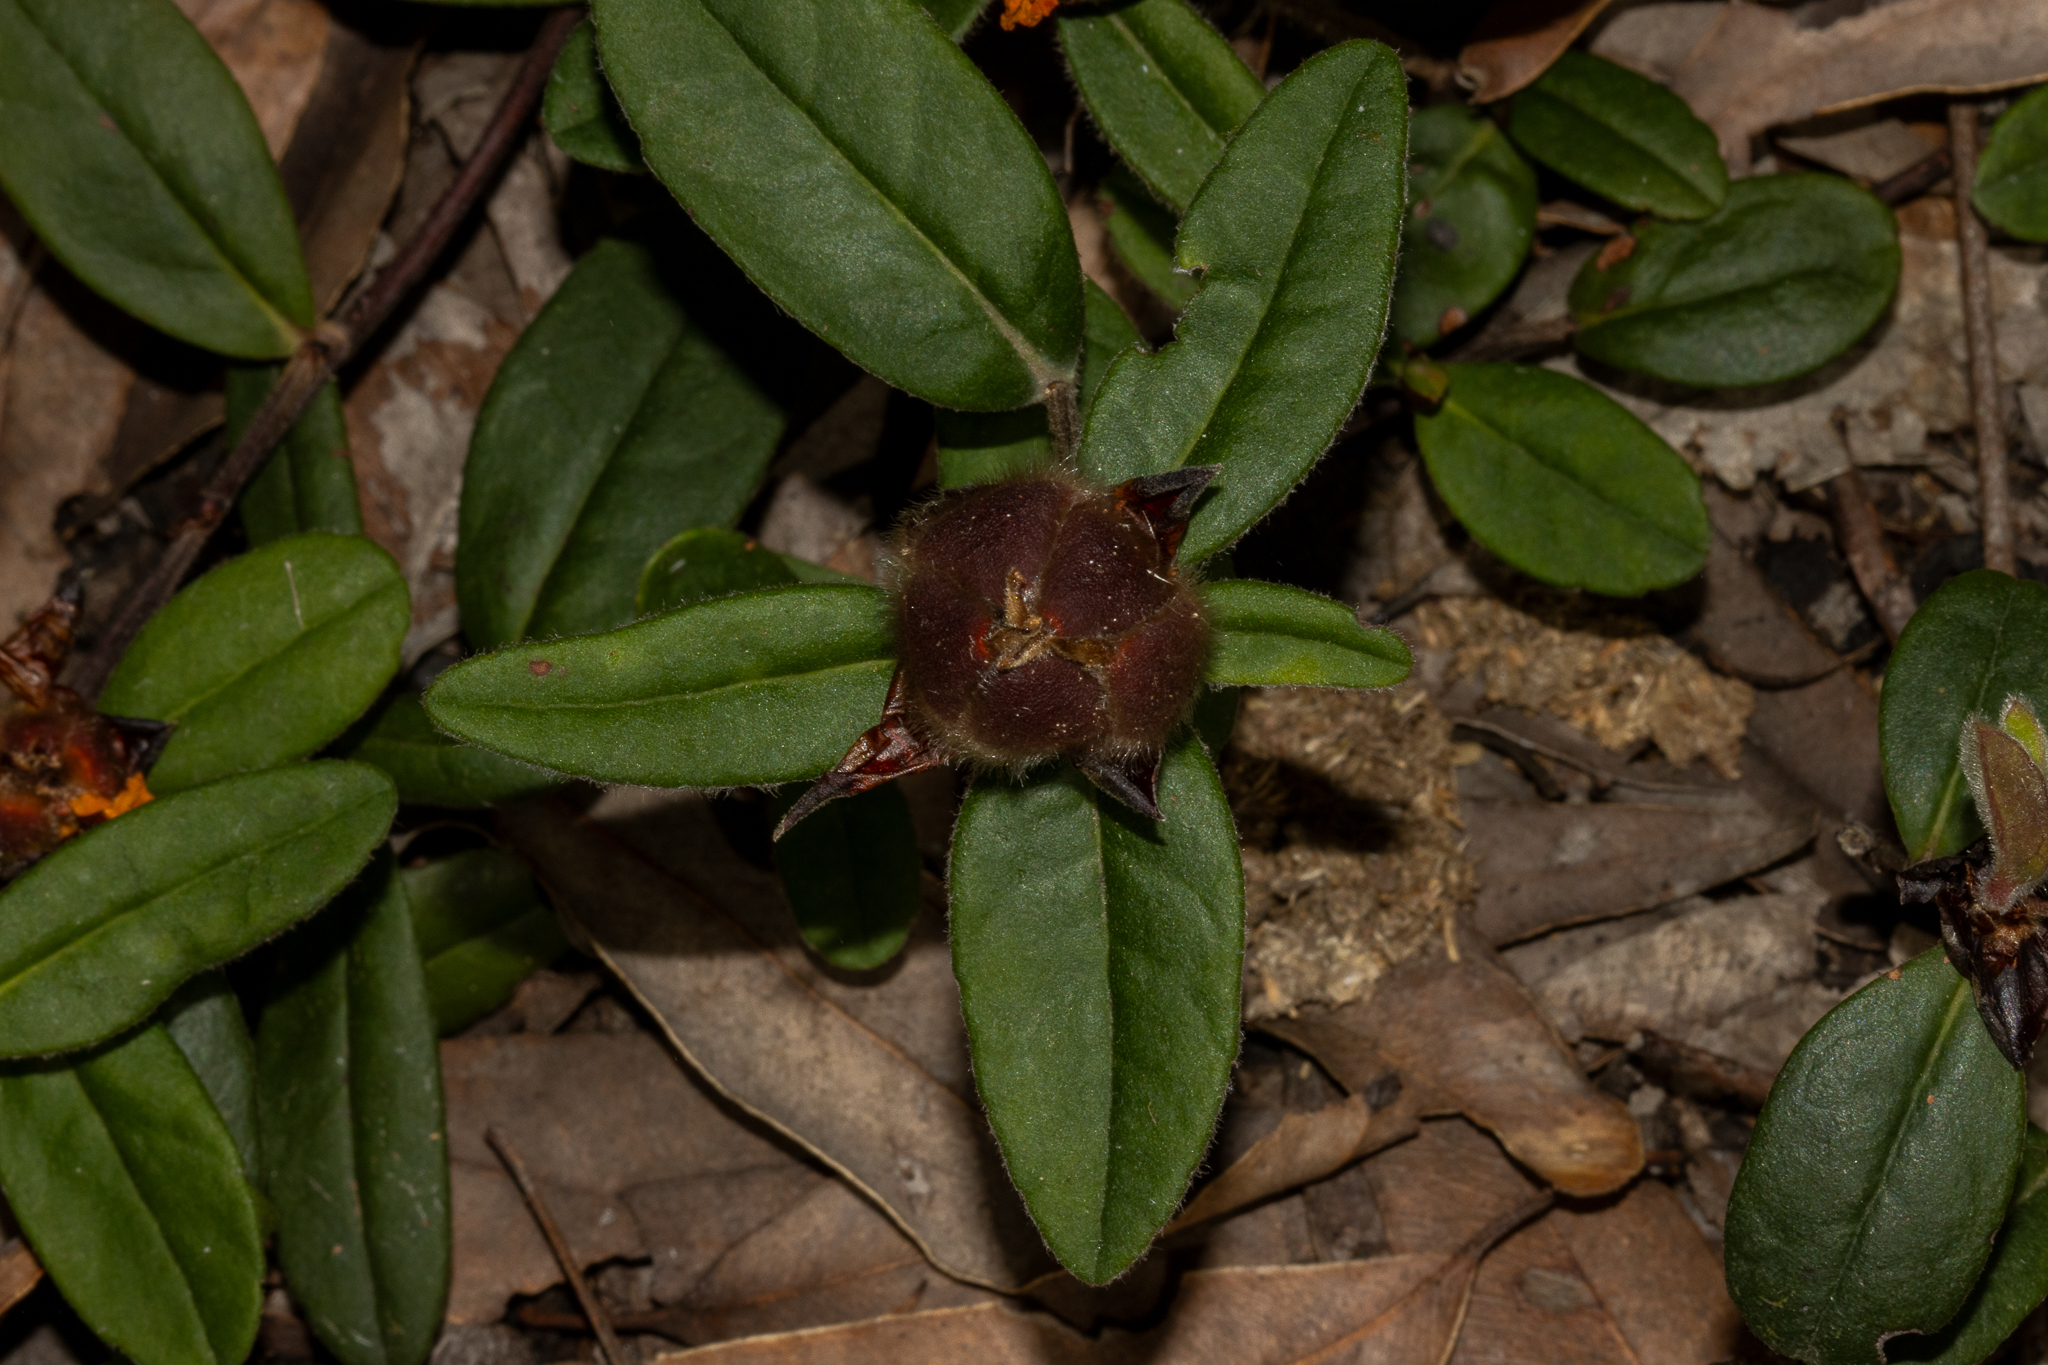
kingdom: Plantae
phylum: Tracheophyta
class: Magnoliopsida
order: Dilleniales
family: Dilleniaceae
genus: Hibbertia
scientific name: Hibbertia spectabilis
